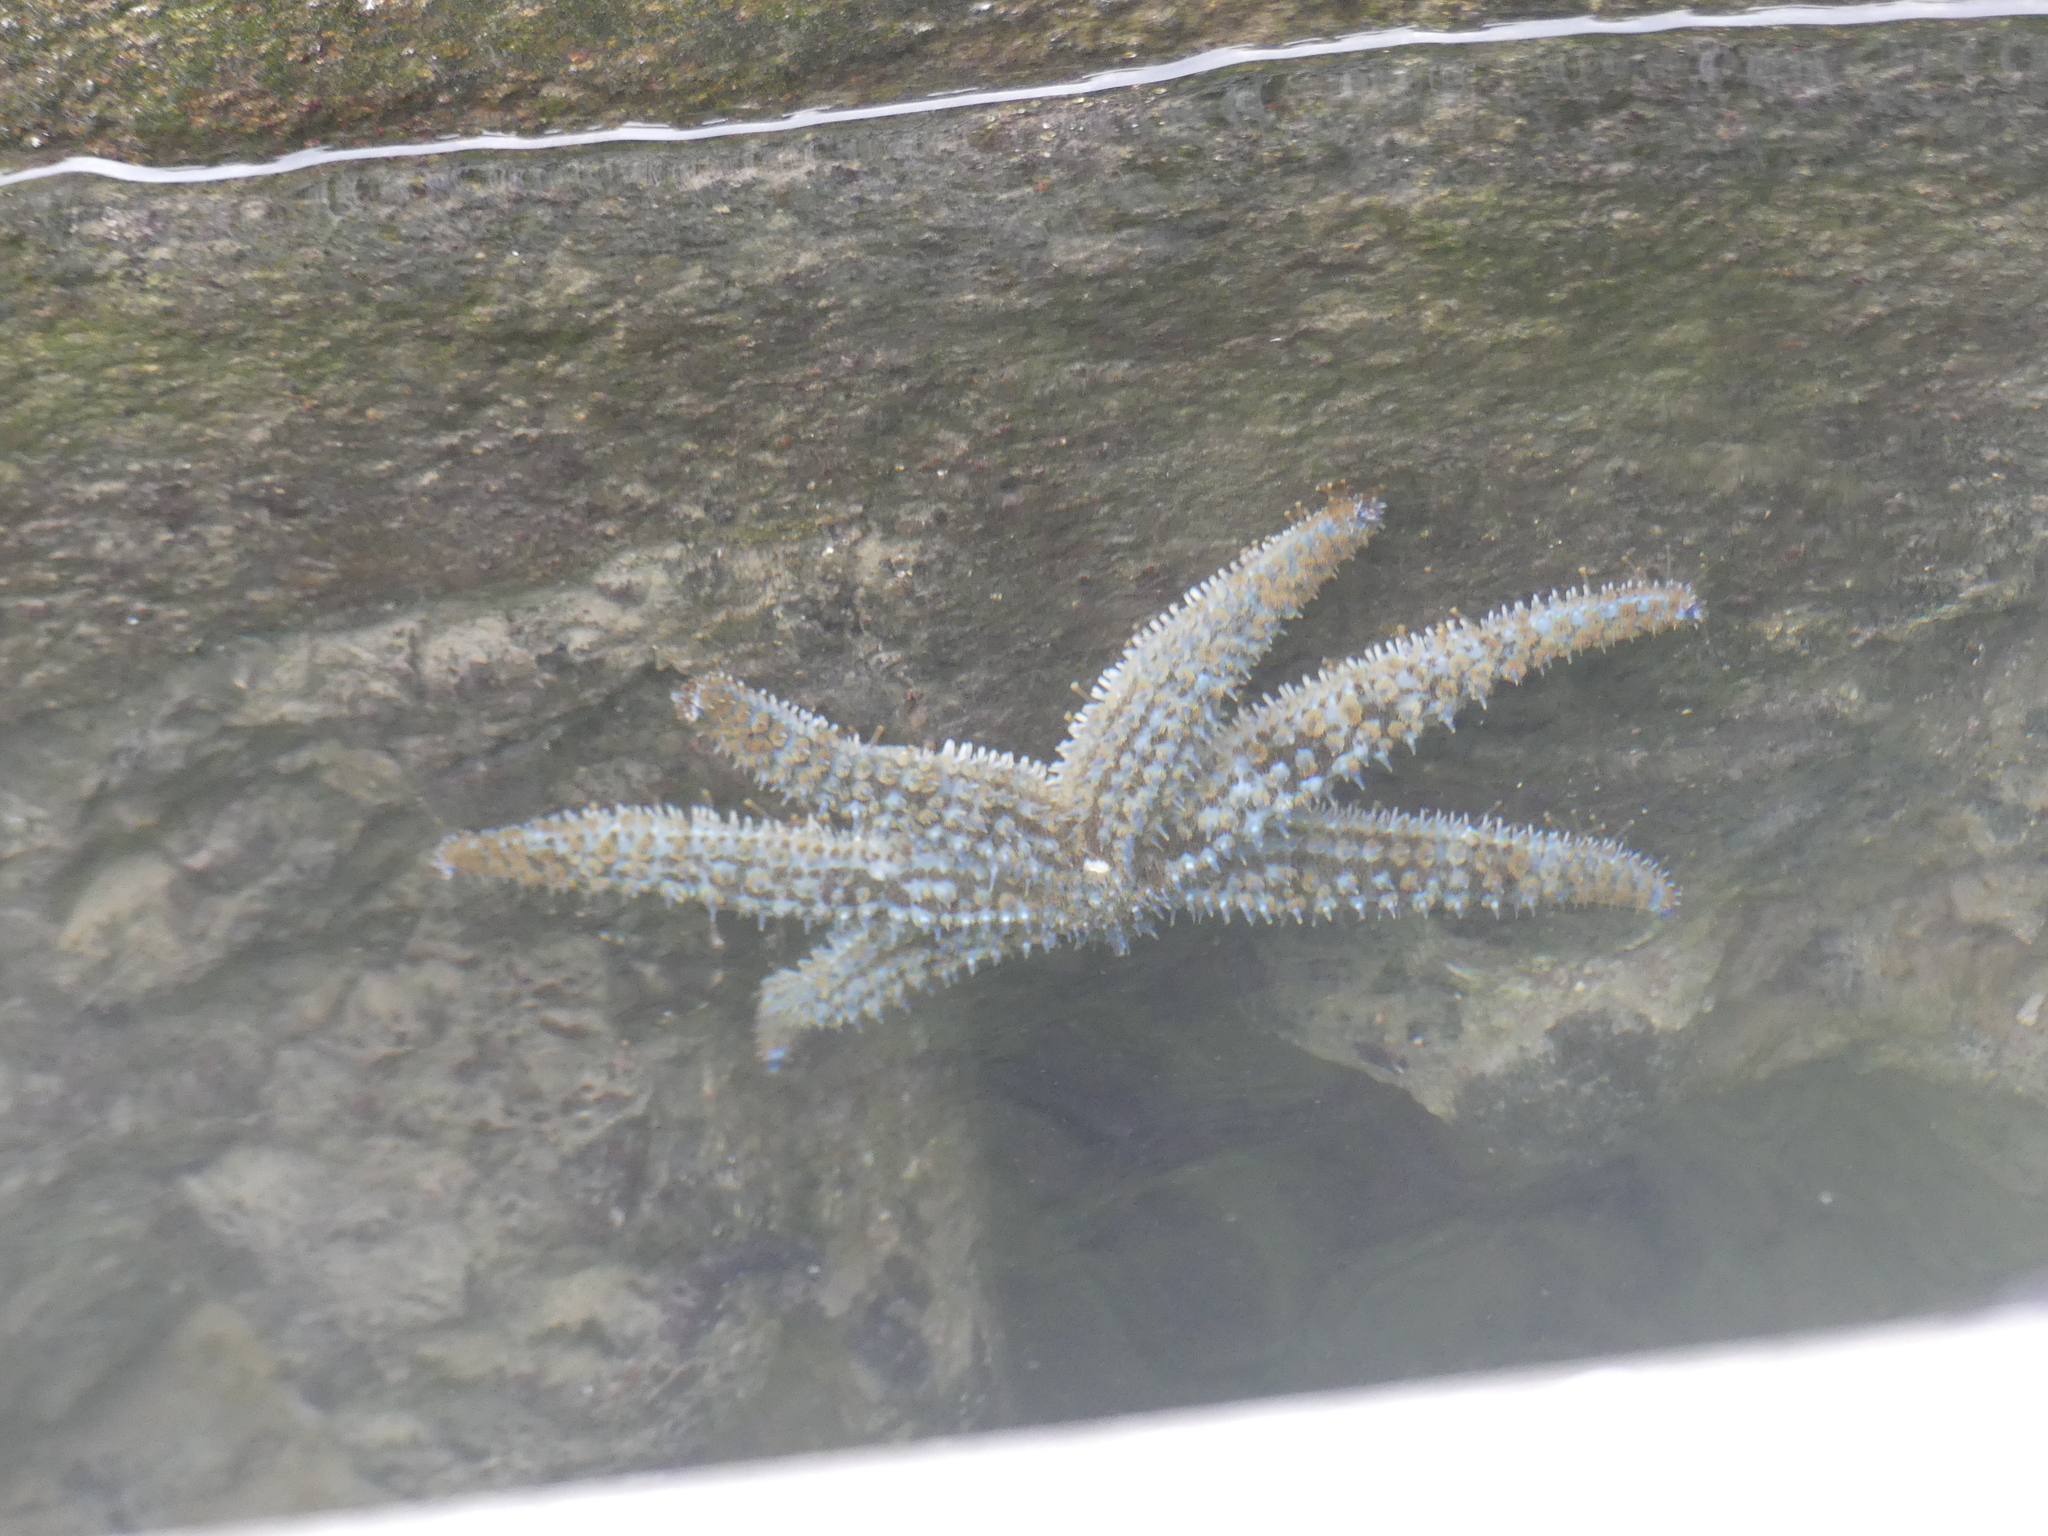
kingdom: Animalia
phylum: Echinodermata
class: Asteroidea
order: Forcipulatida
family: Asteriidae
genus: Coscinasterias
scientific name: Coscinasterias tenuispina
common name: Blue spiny starfish
